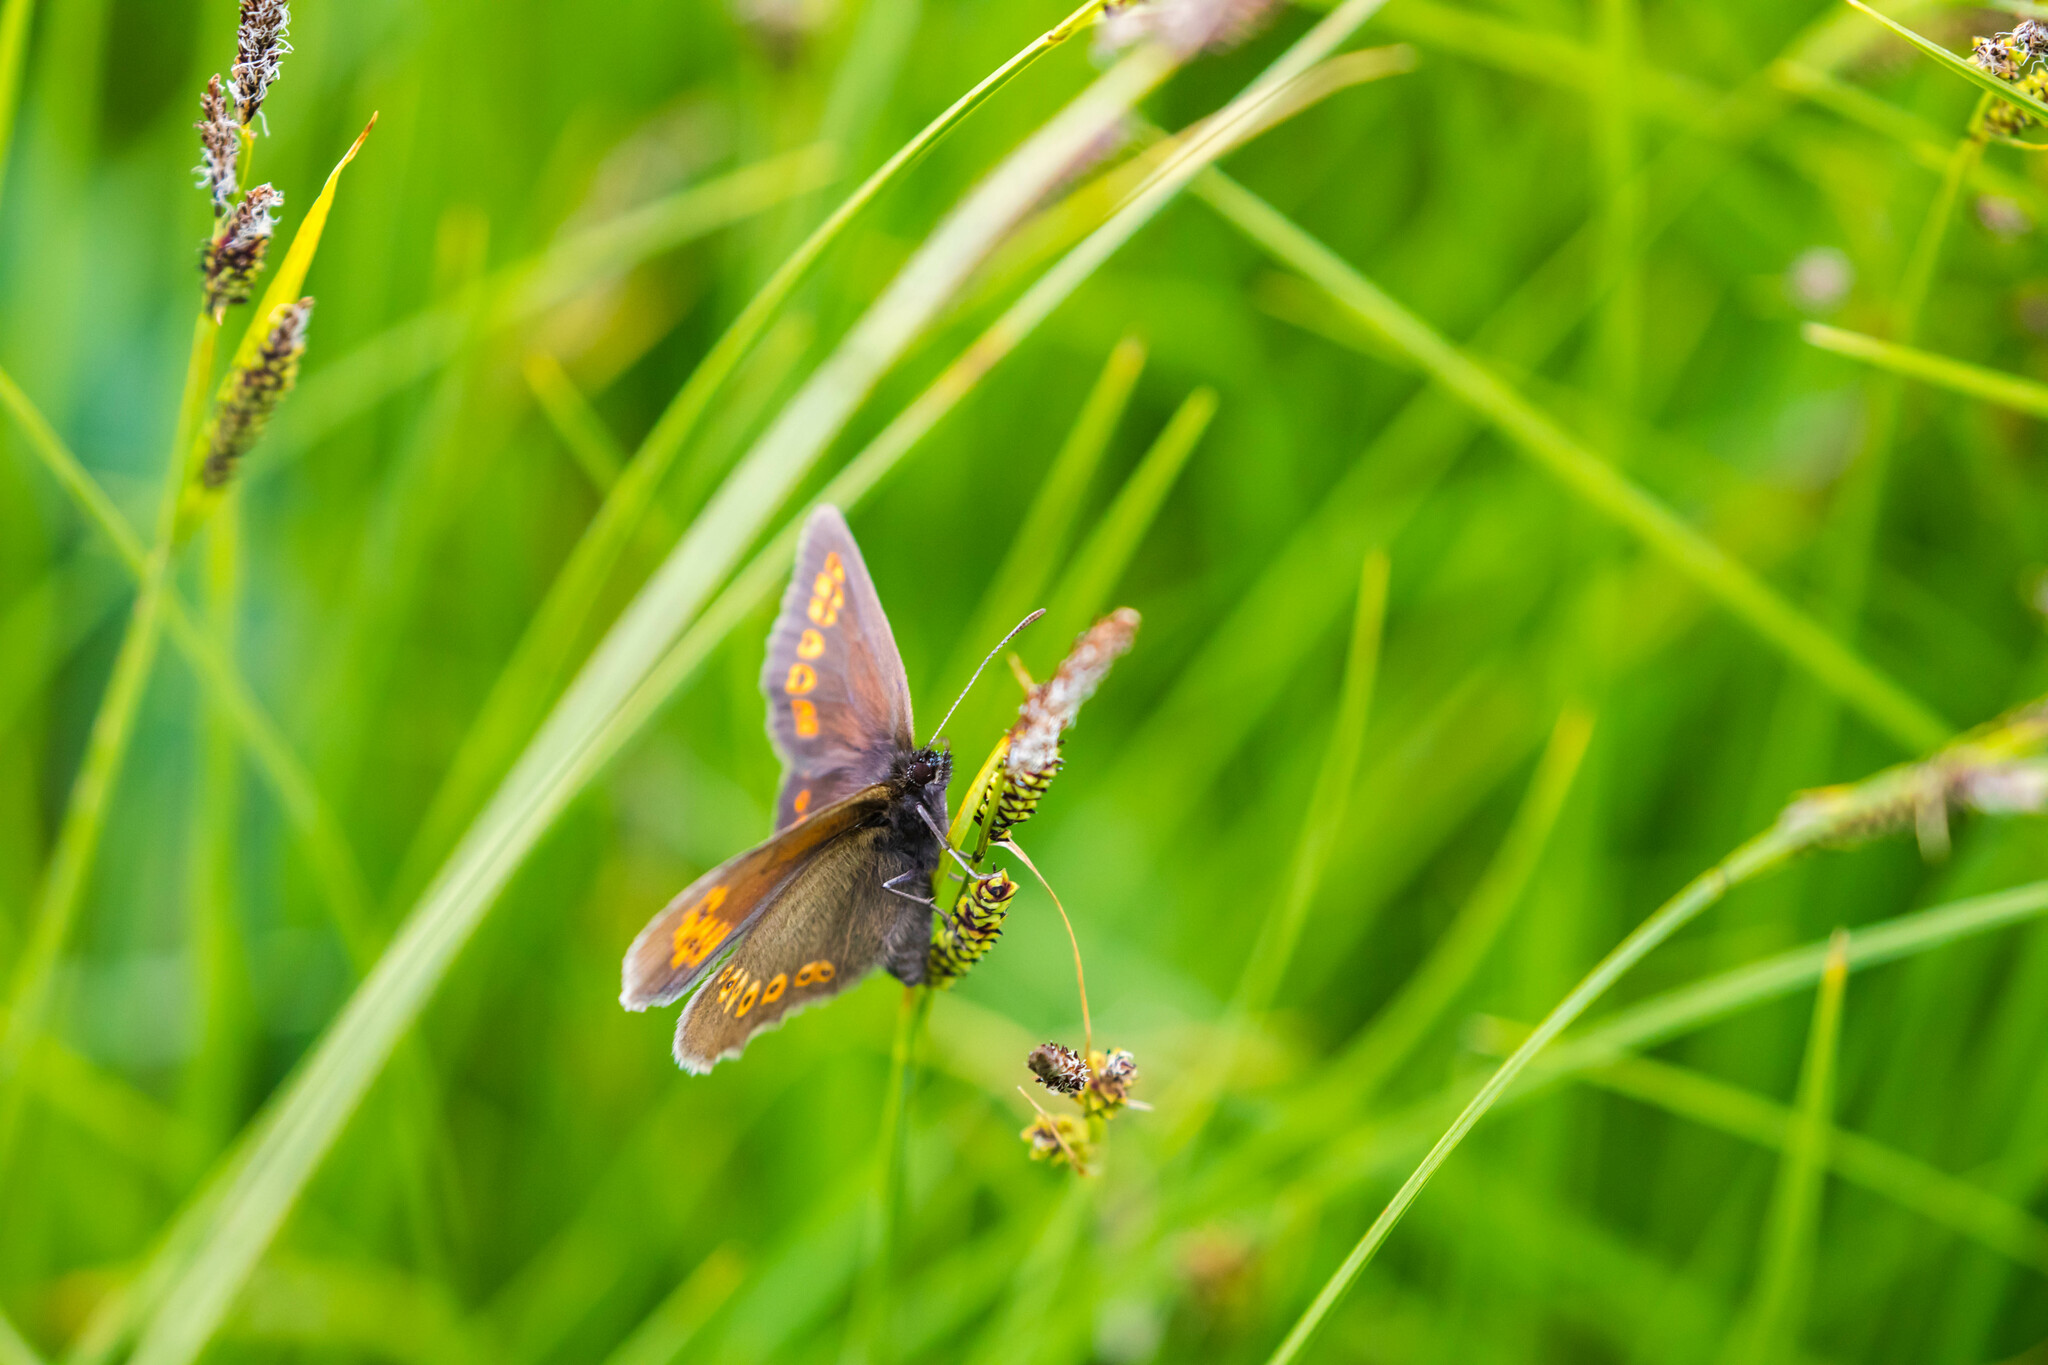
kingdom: Animalia
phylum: Arthropoda
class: Insecta
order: Lepidoptera
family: Nymphalidae
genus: Erebia
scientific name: Erebia alberganus
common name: Almond-eyed ringlet
